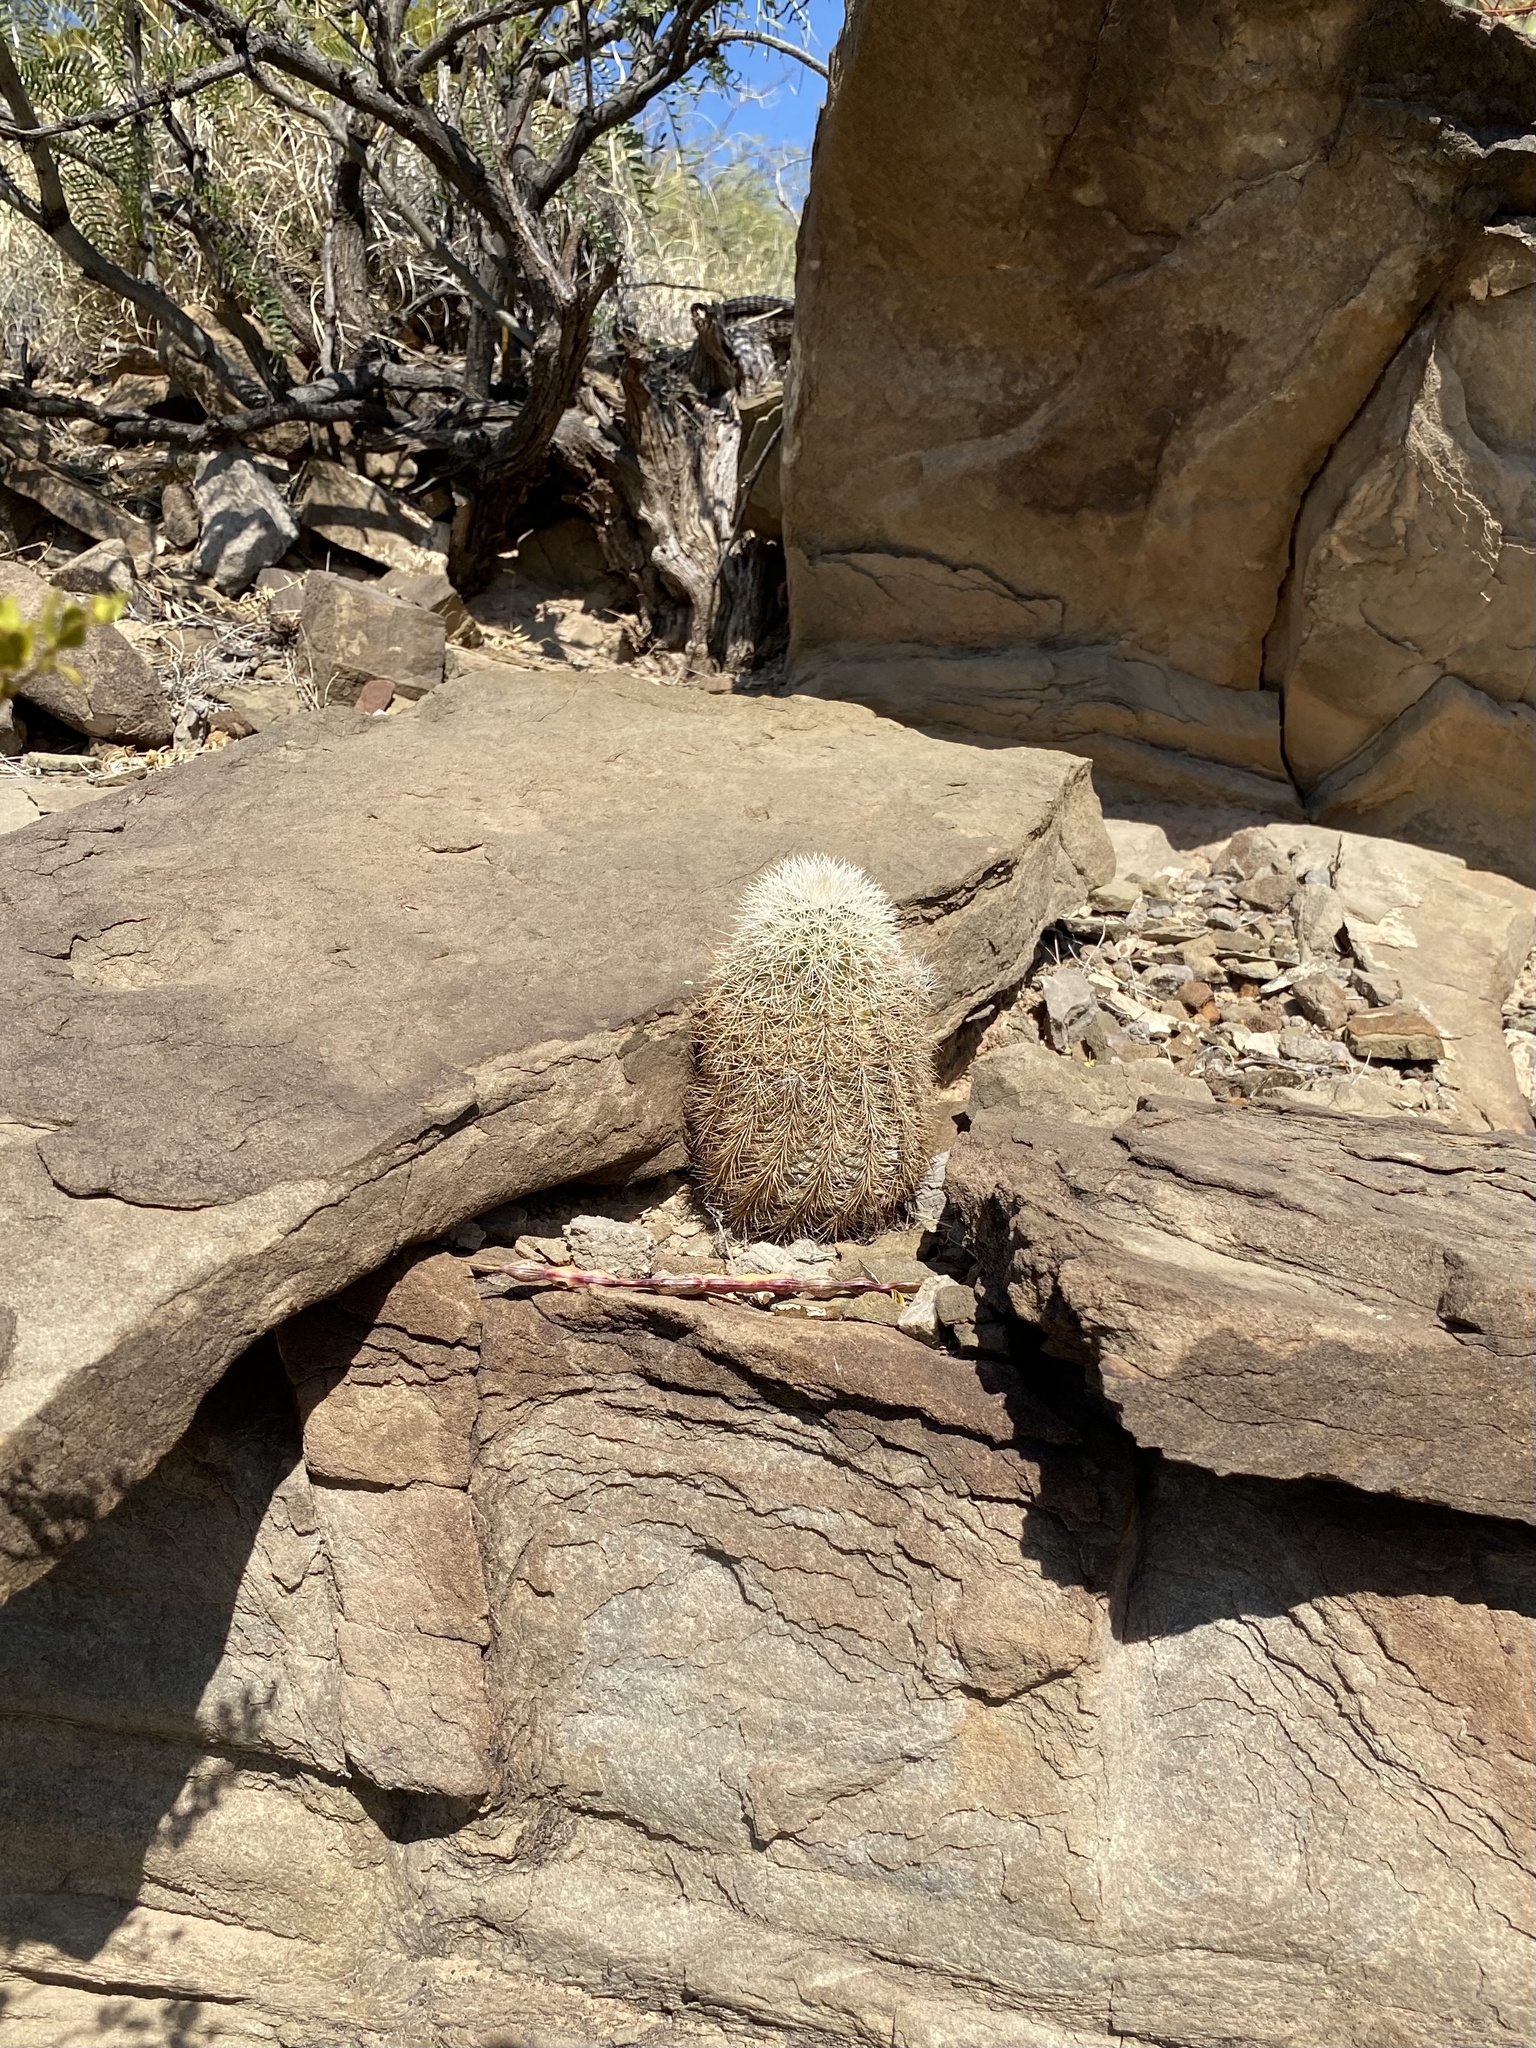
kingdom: Plantae
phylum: Tracheophyta
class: Magnoliopsida
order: Caryophyllales
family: Cactaceae
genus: Echinocereus
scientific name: Echinocereus dasyacanthus
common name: Spiny hedgehog cactus
